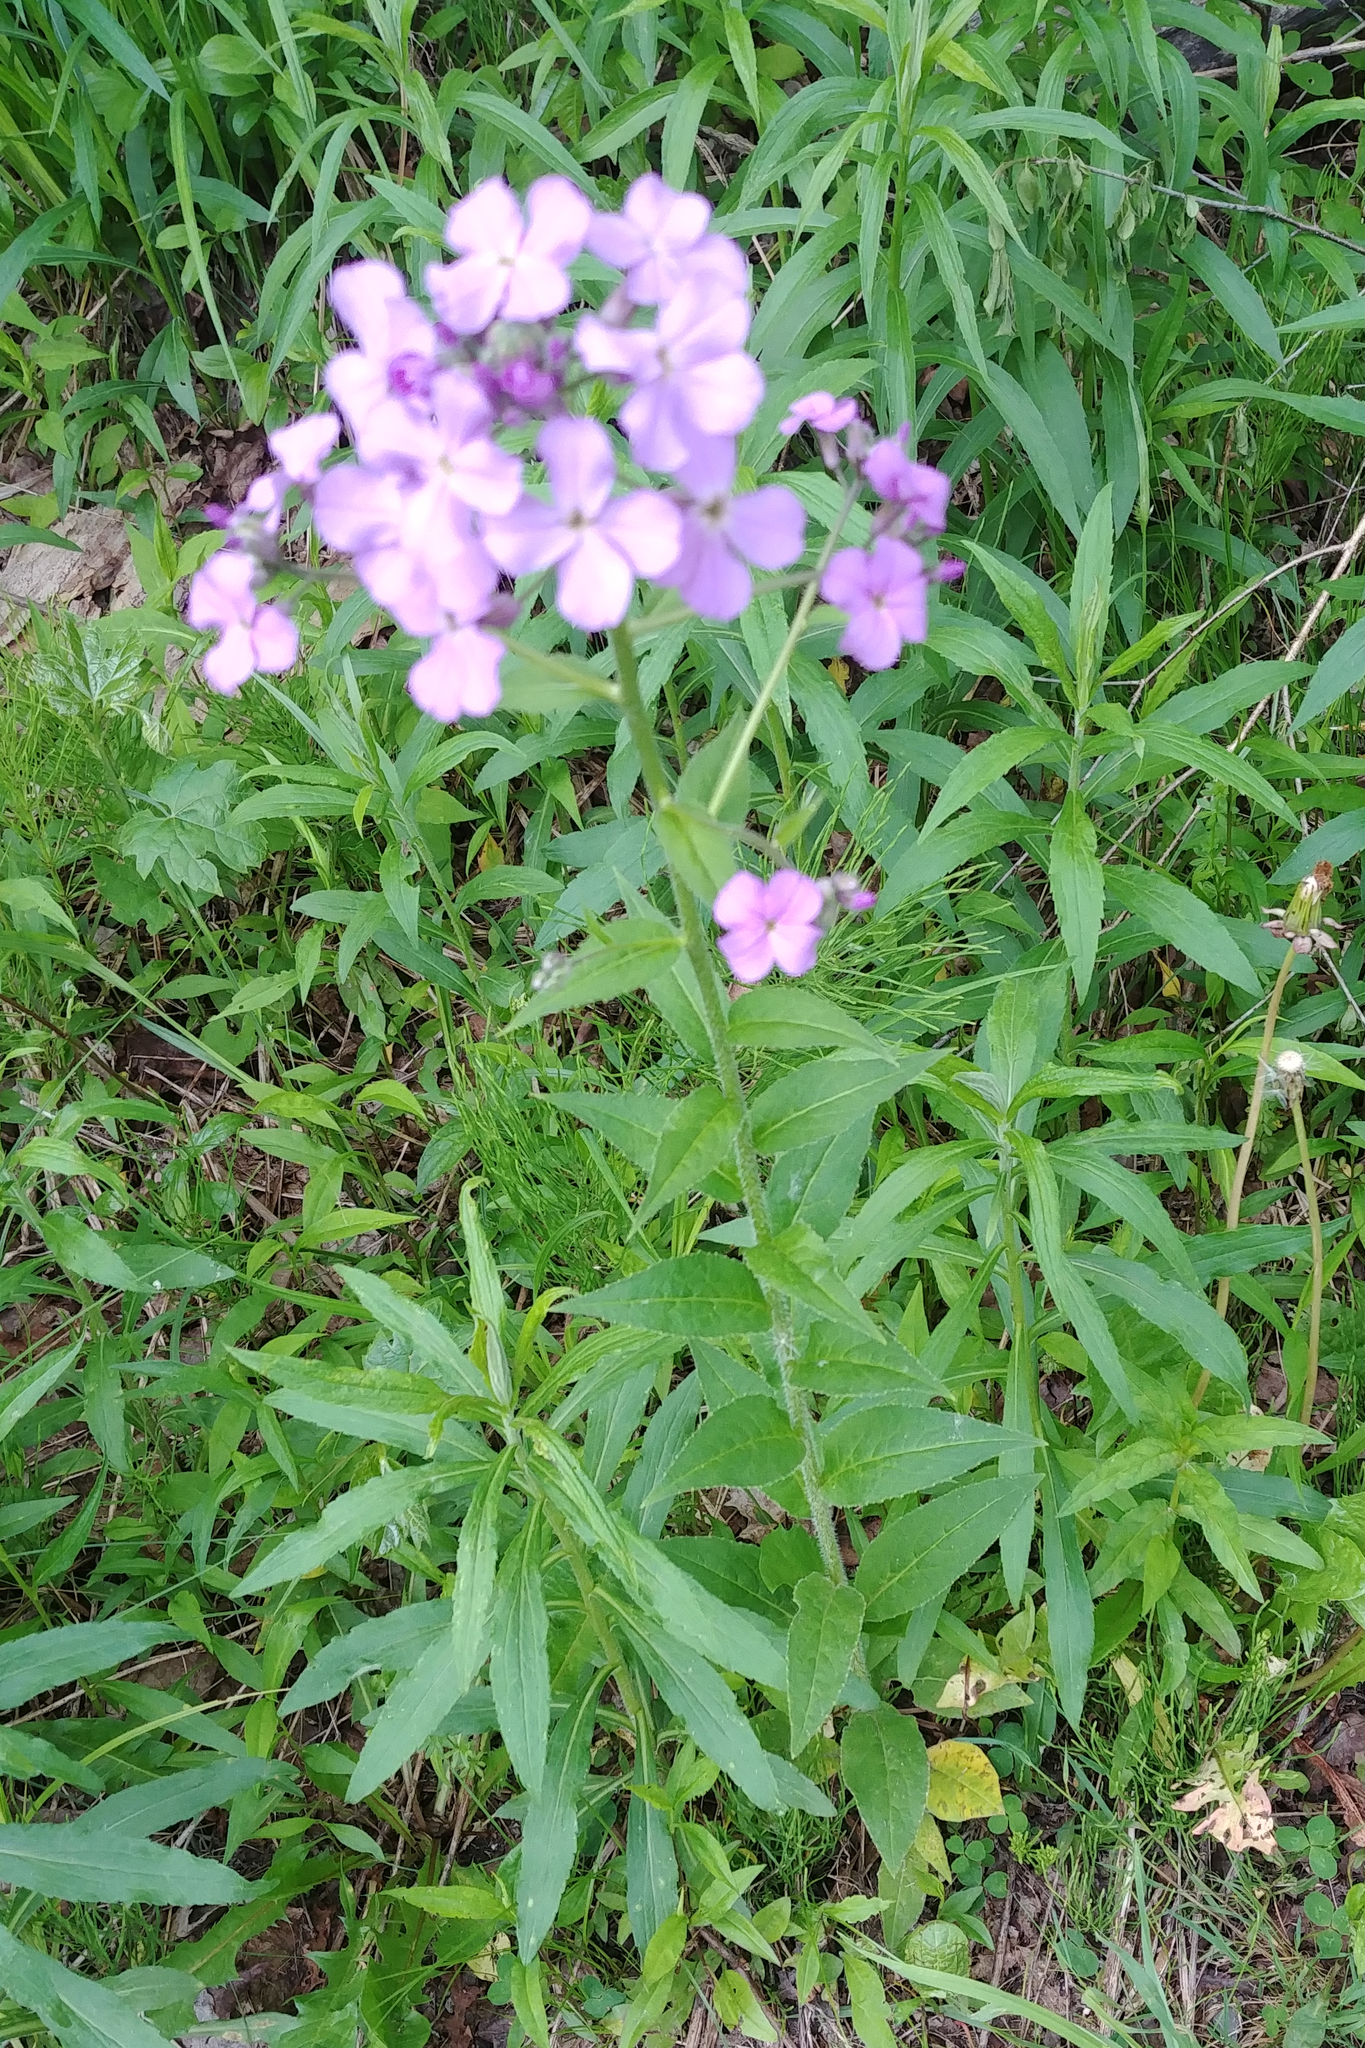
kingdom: Plantae
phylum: Tracheophyta
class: Magnoliopsida
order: Brassicales
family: Brassicaceae
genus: Hesperis
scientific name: Hesperis matronalis
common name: Dame's-violet
